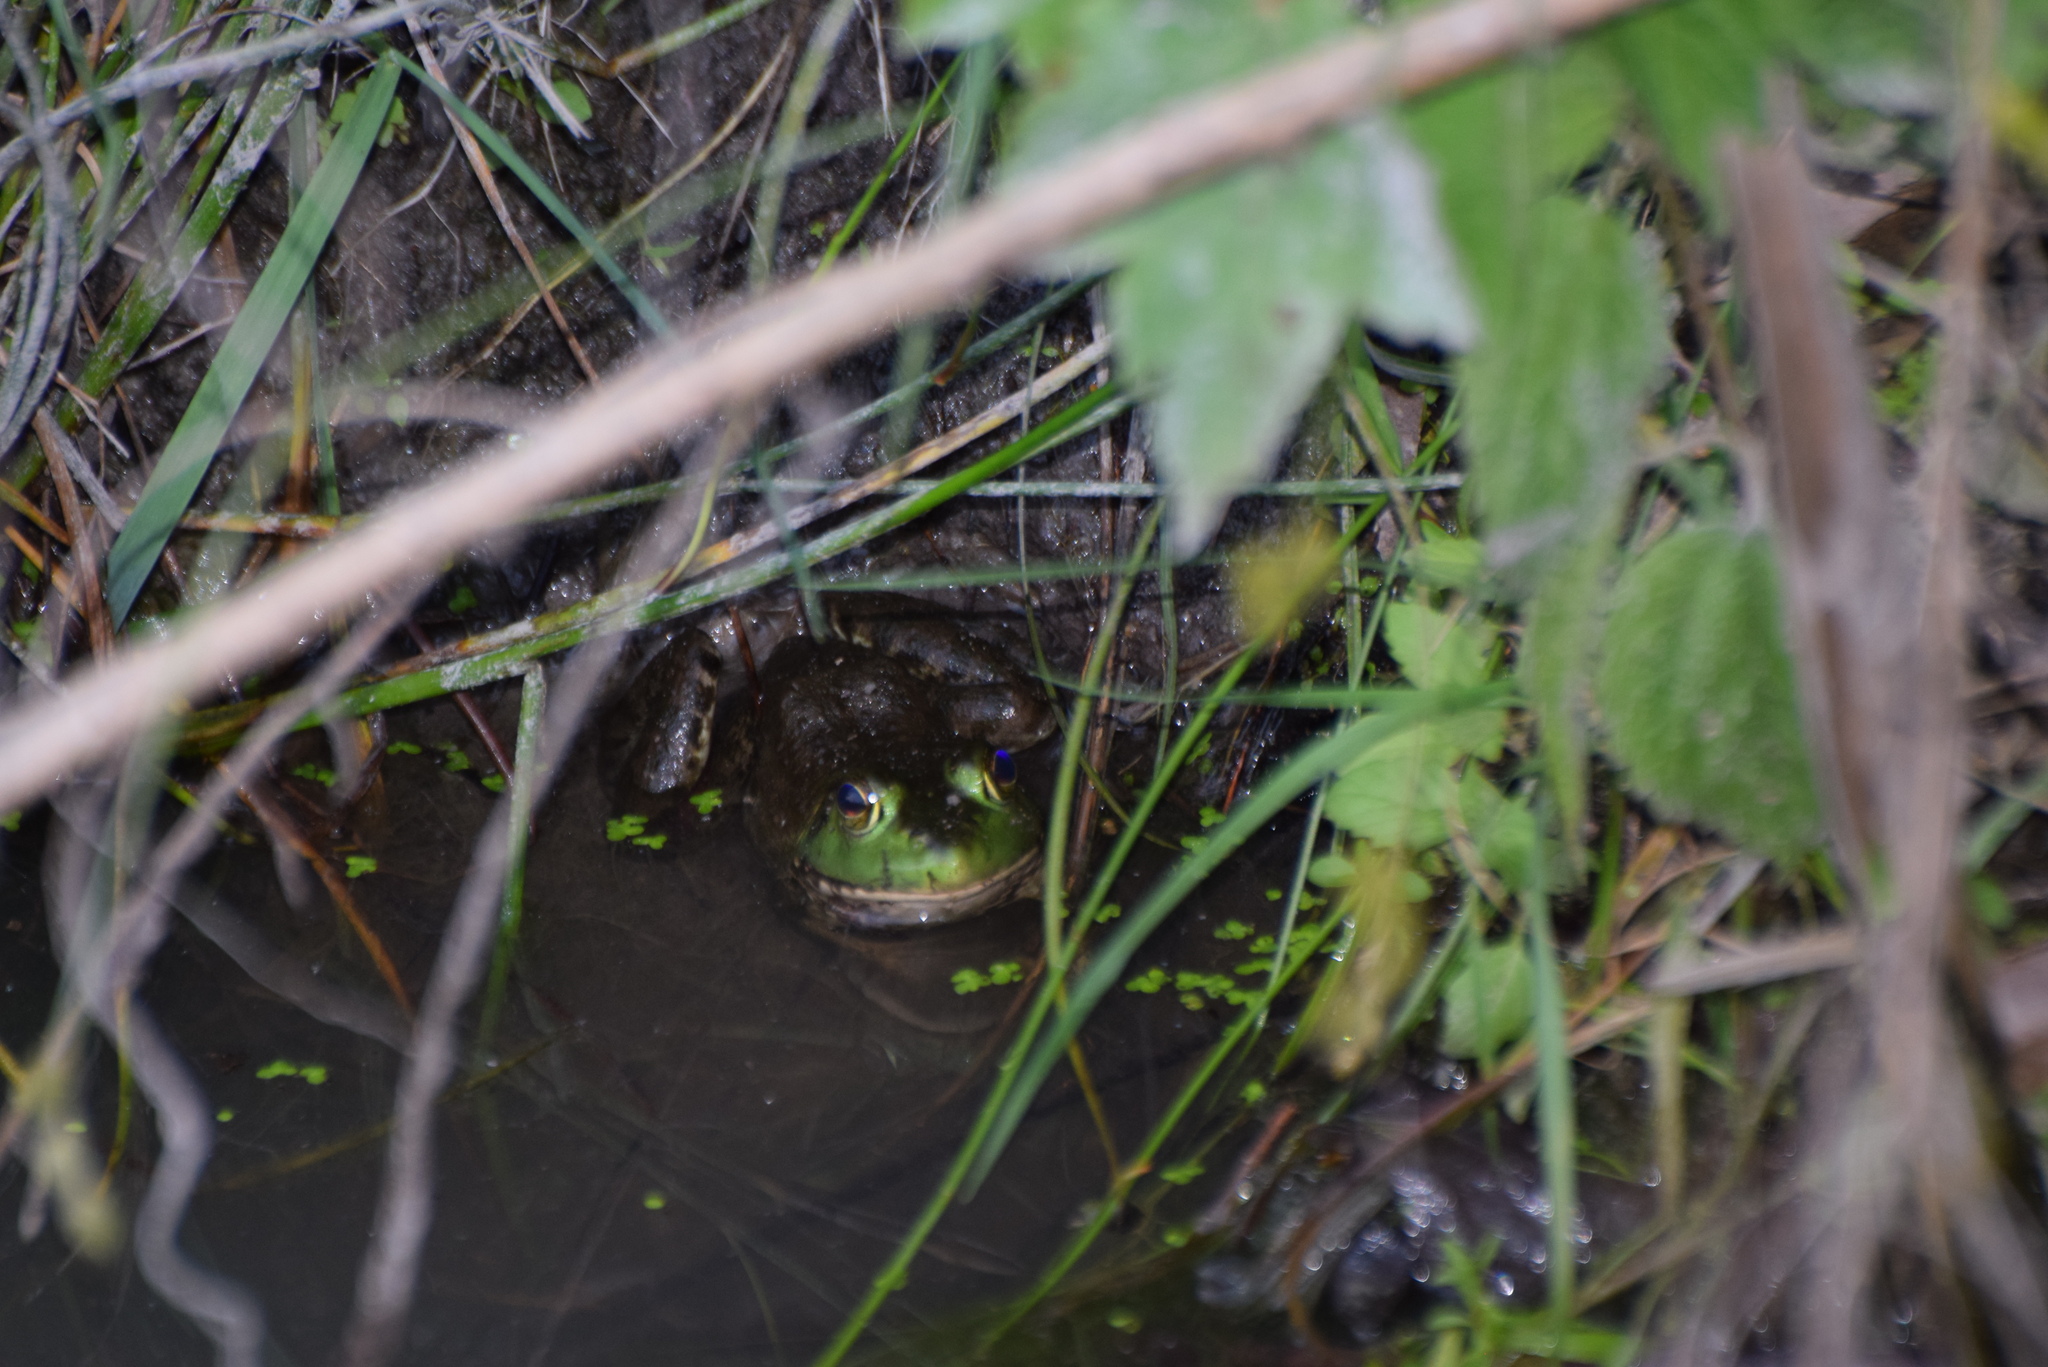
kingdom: Animalia
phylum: Chordata
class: Amphibia
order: Anura
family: Ranidae
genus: Lithobates
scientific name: Lithobates catesbeianus
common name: American bullfrog
